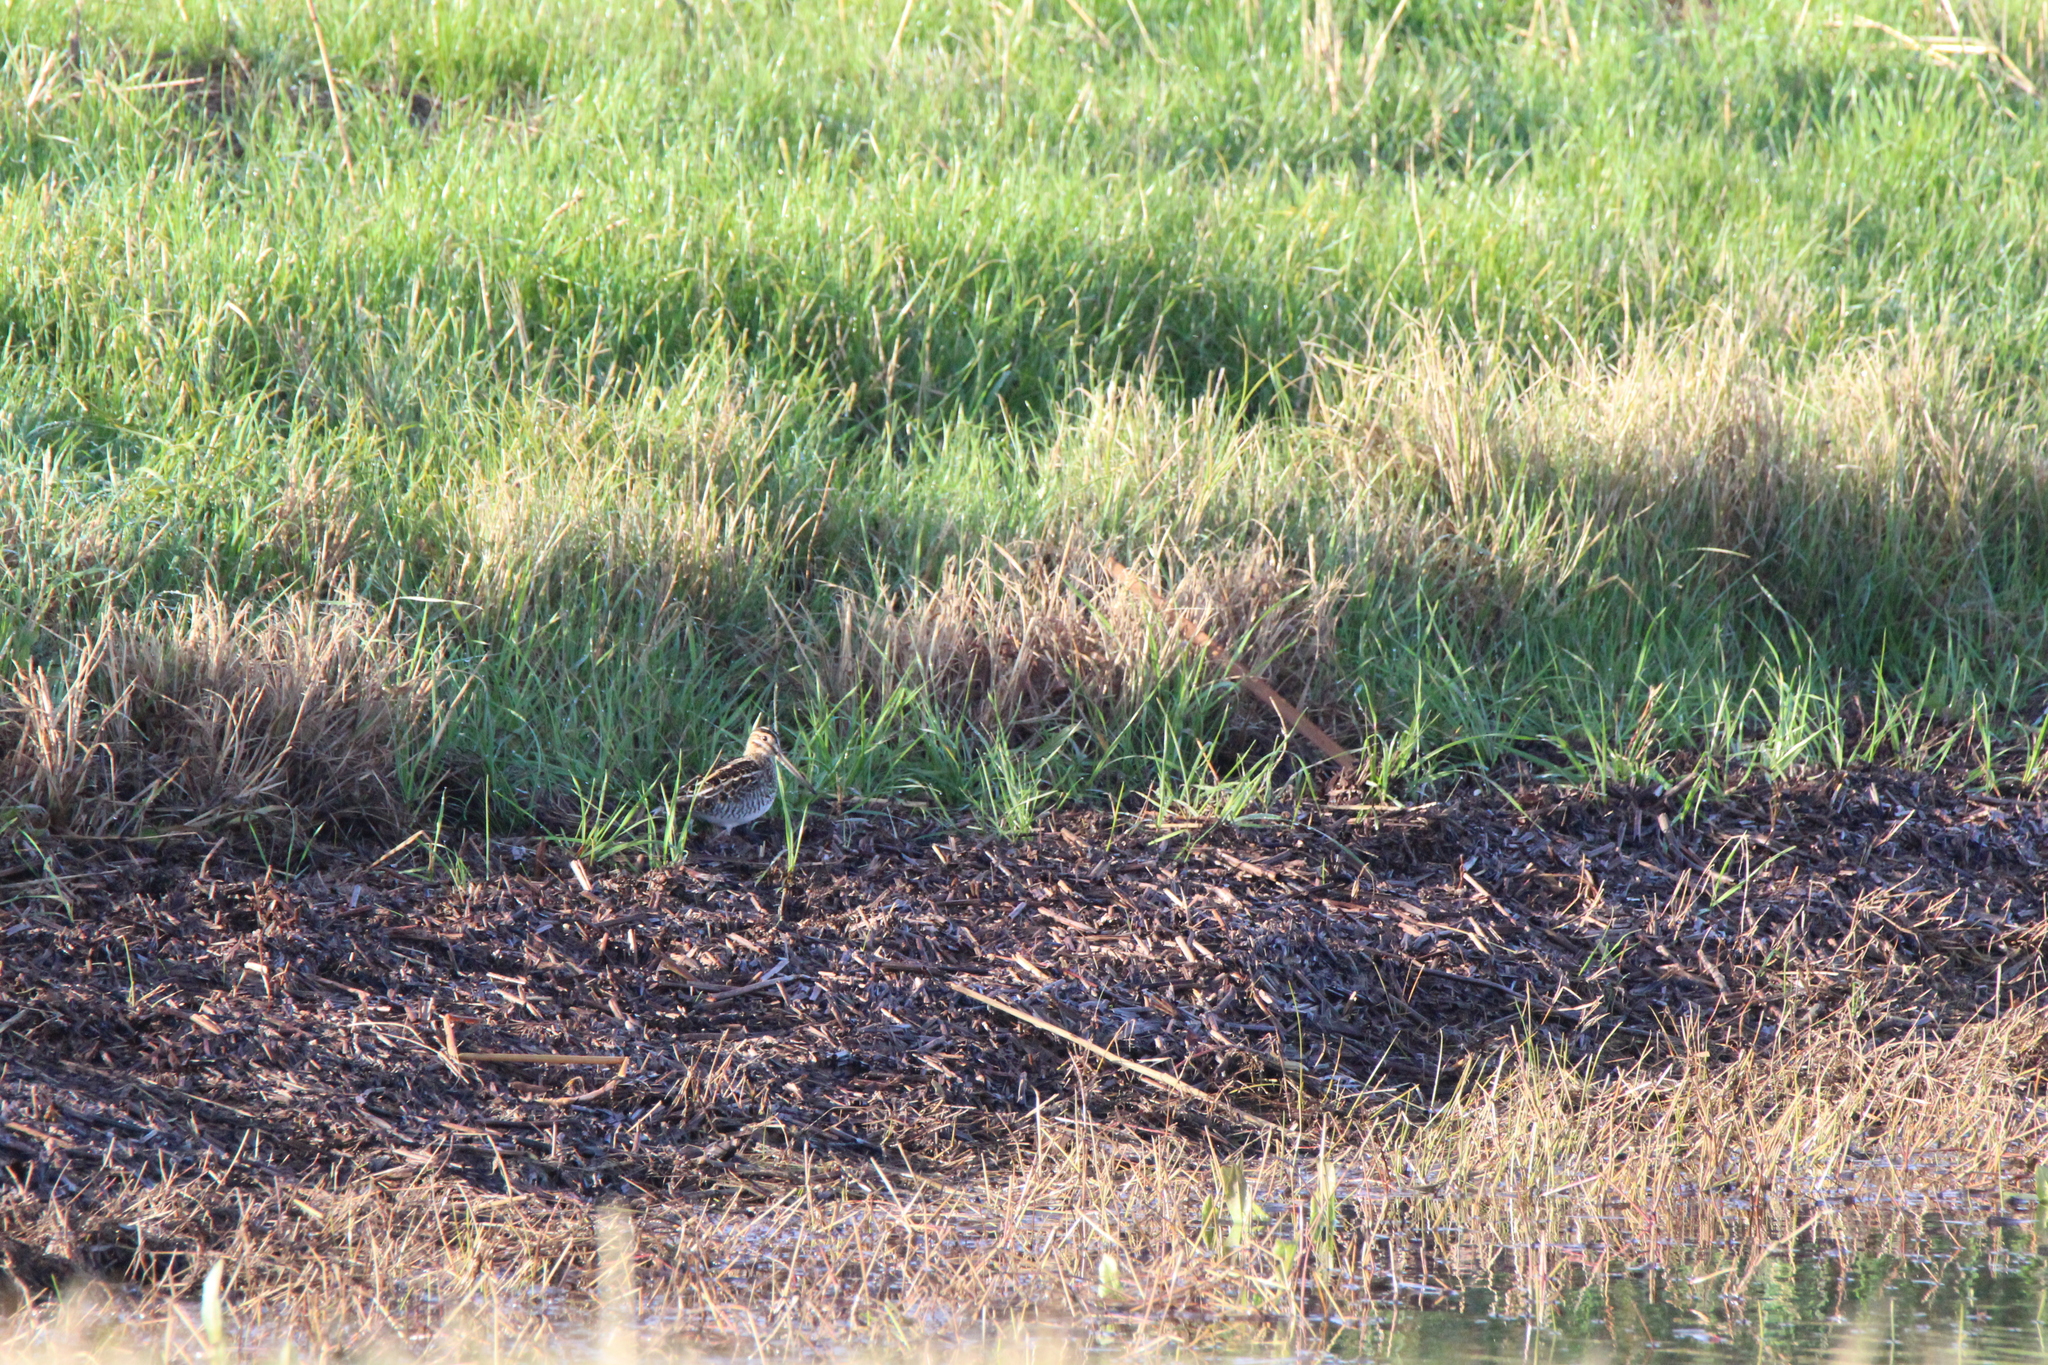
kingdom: Animalia
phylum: Chordata
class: Aves
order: Charadriiformes
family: Scolopacidae
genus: Gallinago
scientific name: Gallinago delicata
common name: Wilson's snipe
